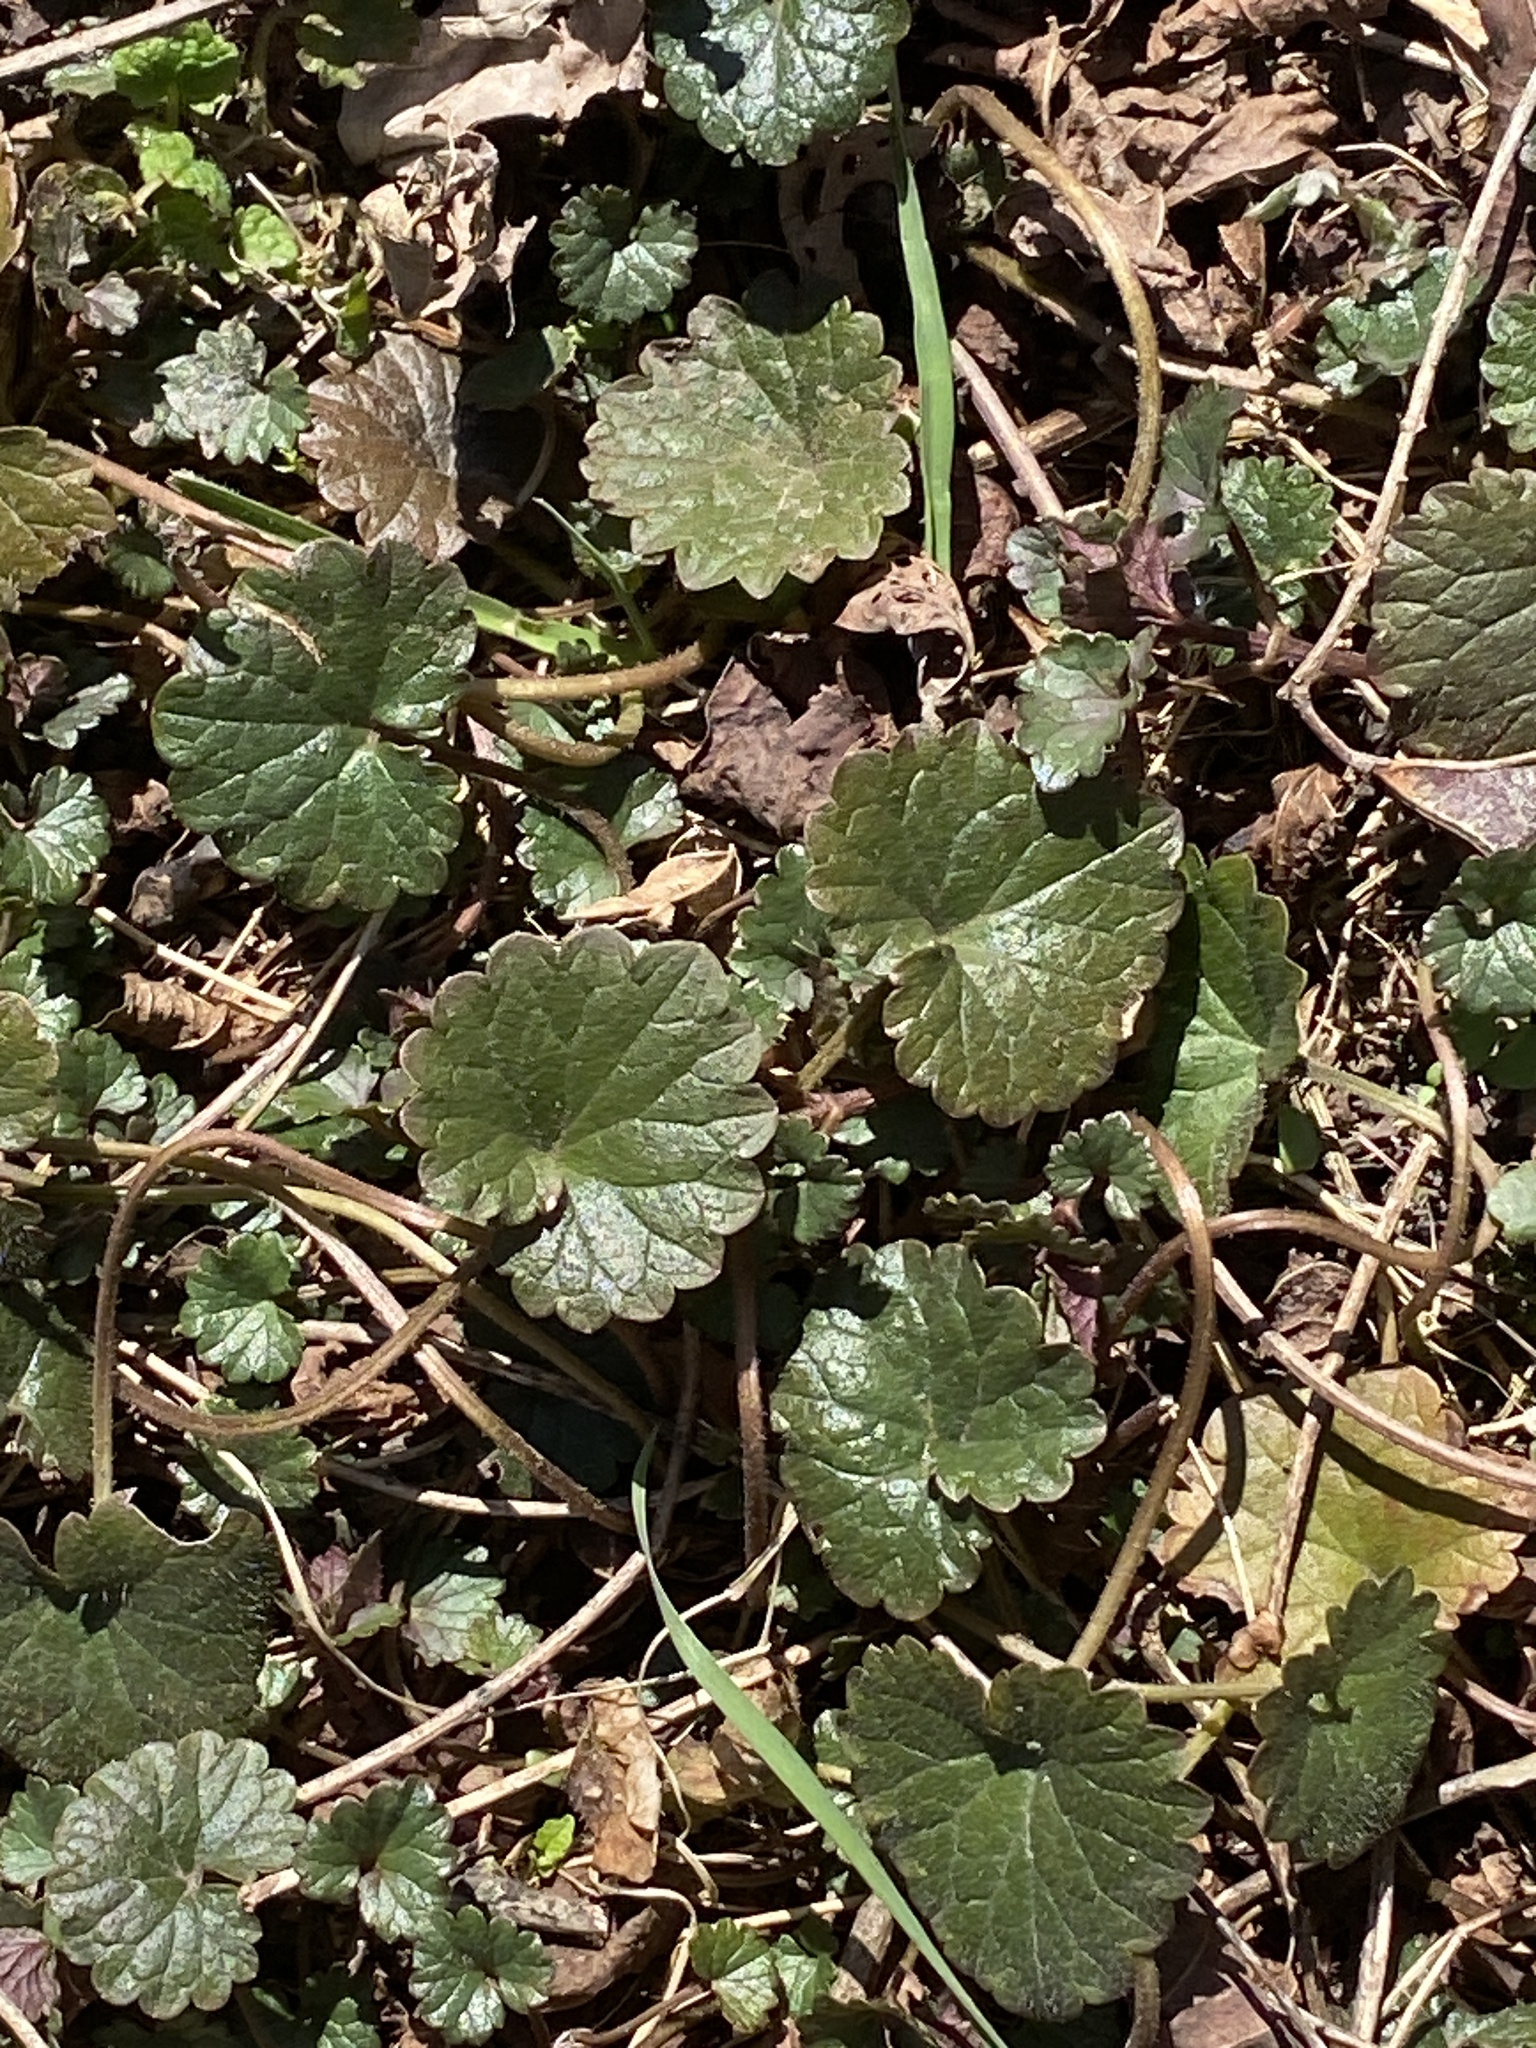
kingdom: Plantae
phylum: Tracheophyta
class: Magnoliopsida
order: Lamiales
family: Lamiaceae
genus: Glechoma
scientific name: Glechoma hederacea
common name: Ground ivy
